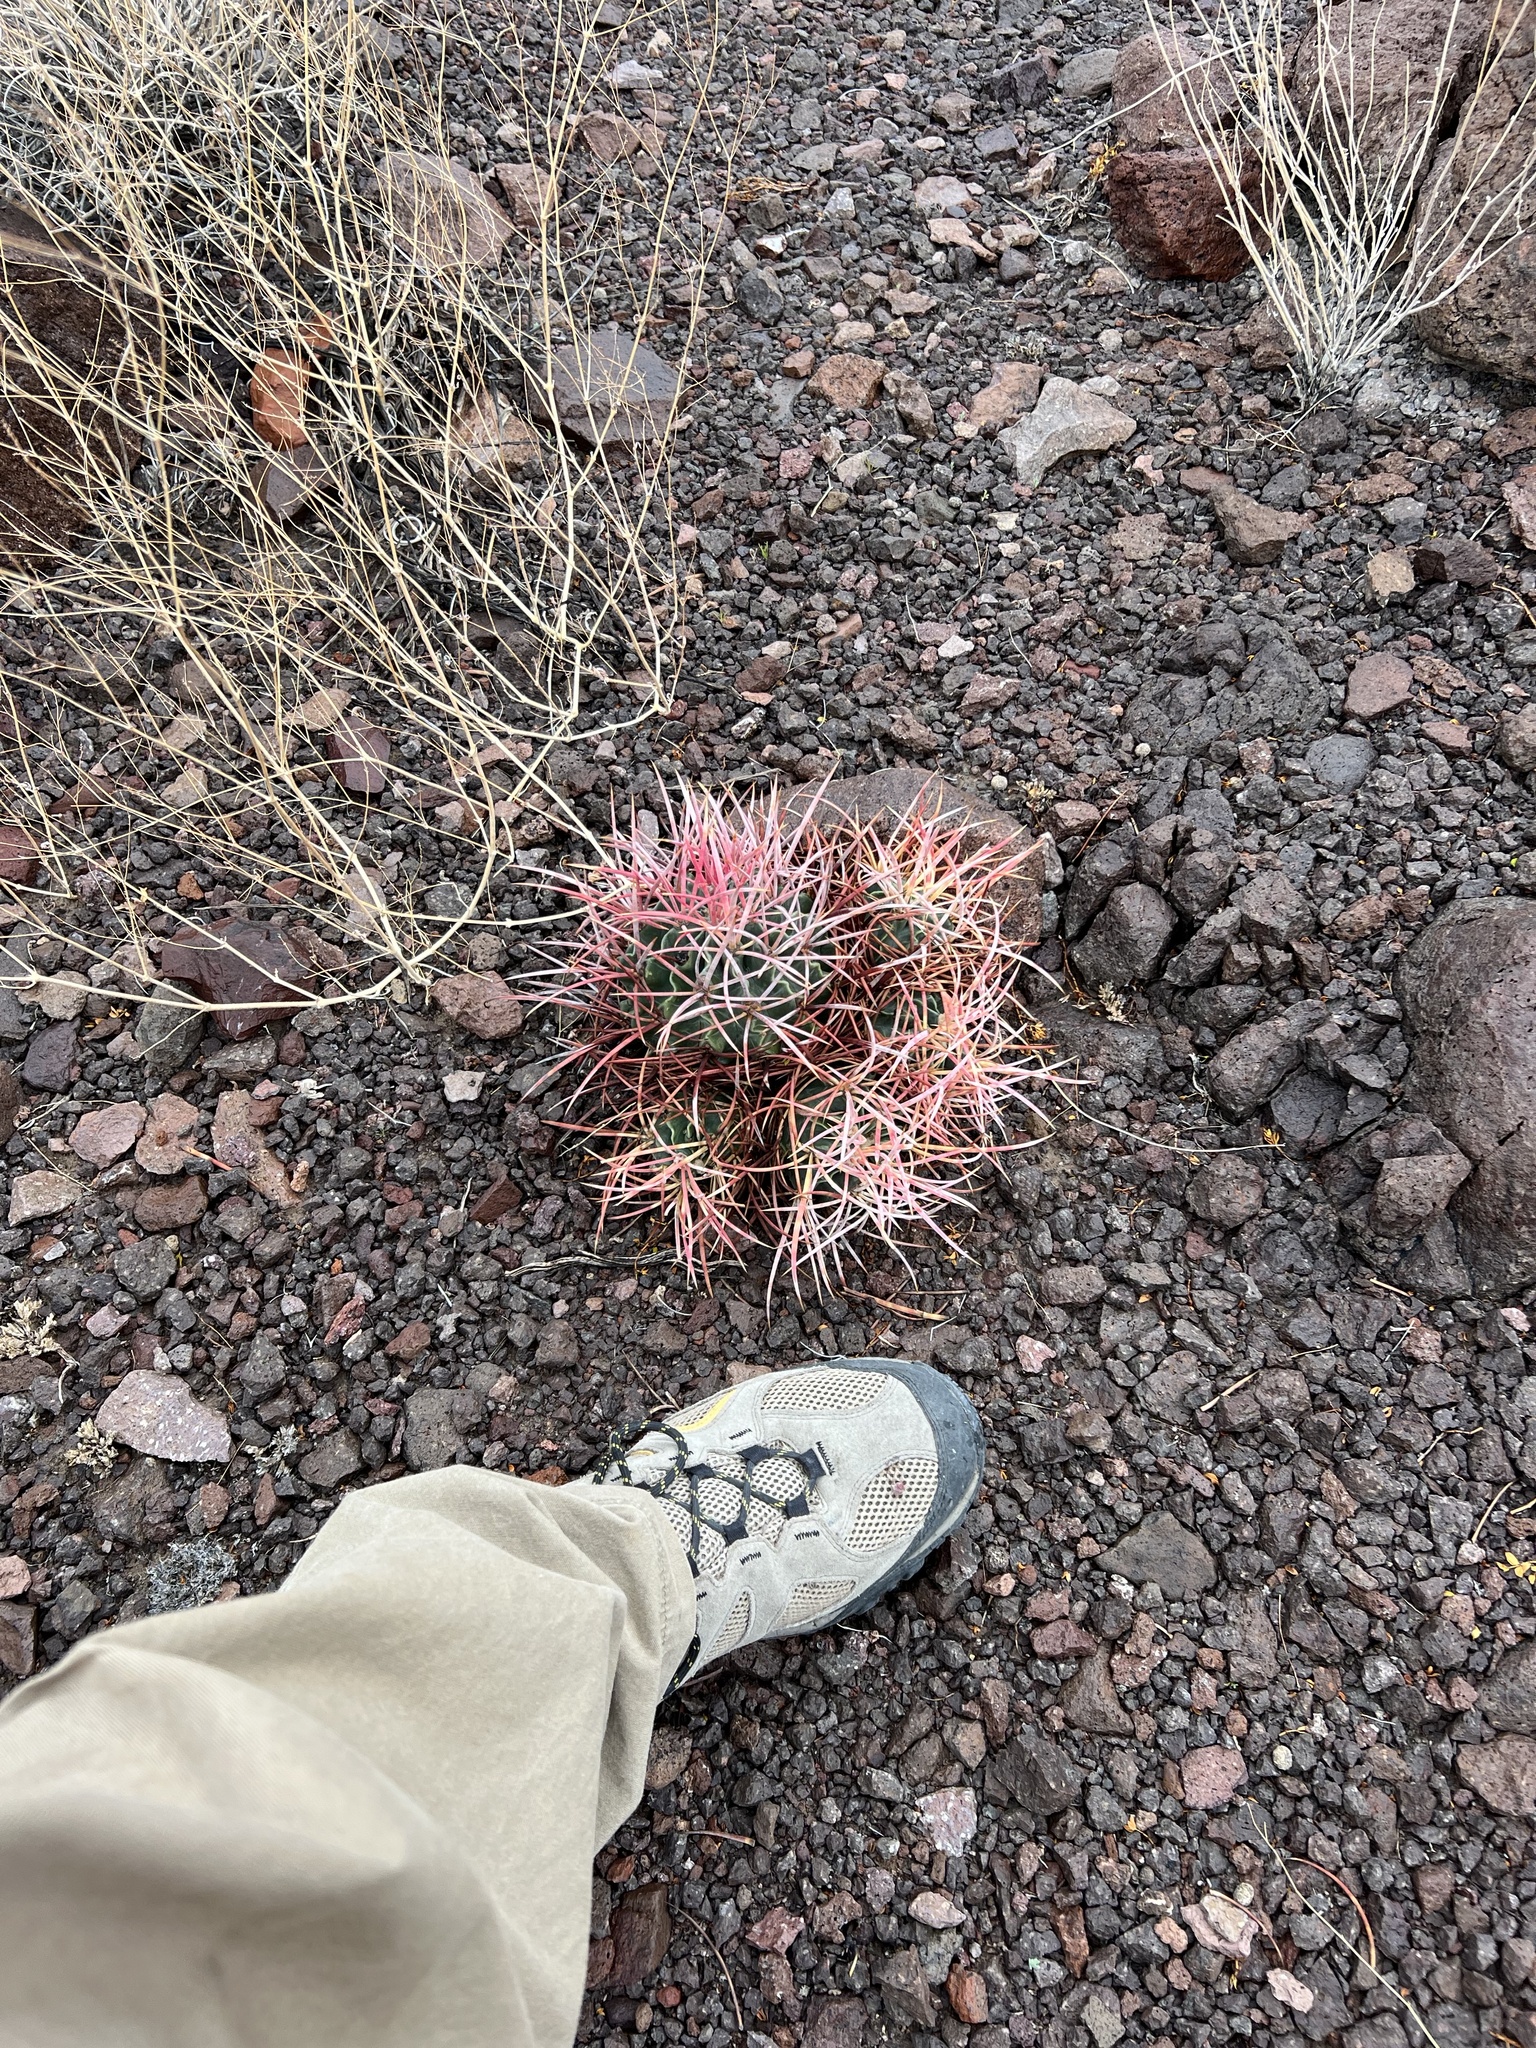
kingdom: Plantae
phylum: Tracheophyta
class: Magnoliopsida
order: Caryophyllales
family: Cactaceae
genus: Echinocactus
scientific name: Echinocactus polycephalus
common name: Cottontop cactus
